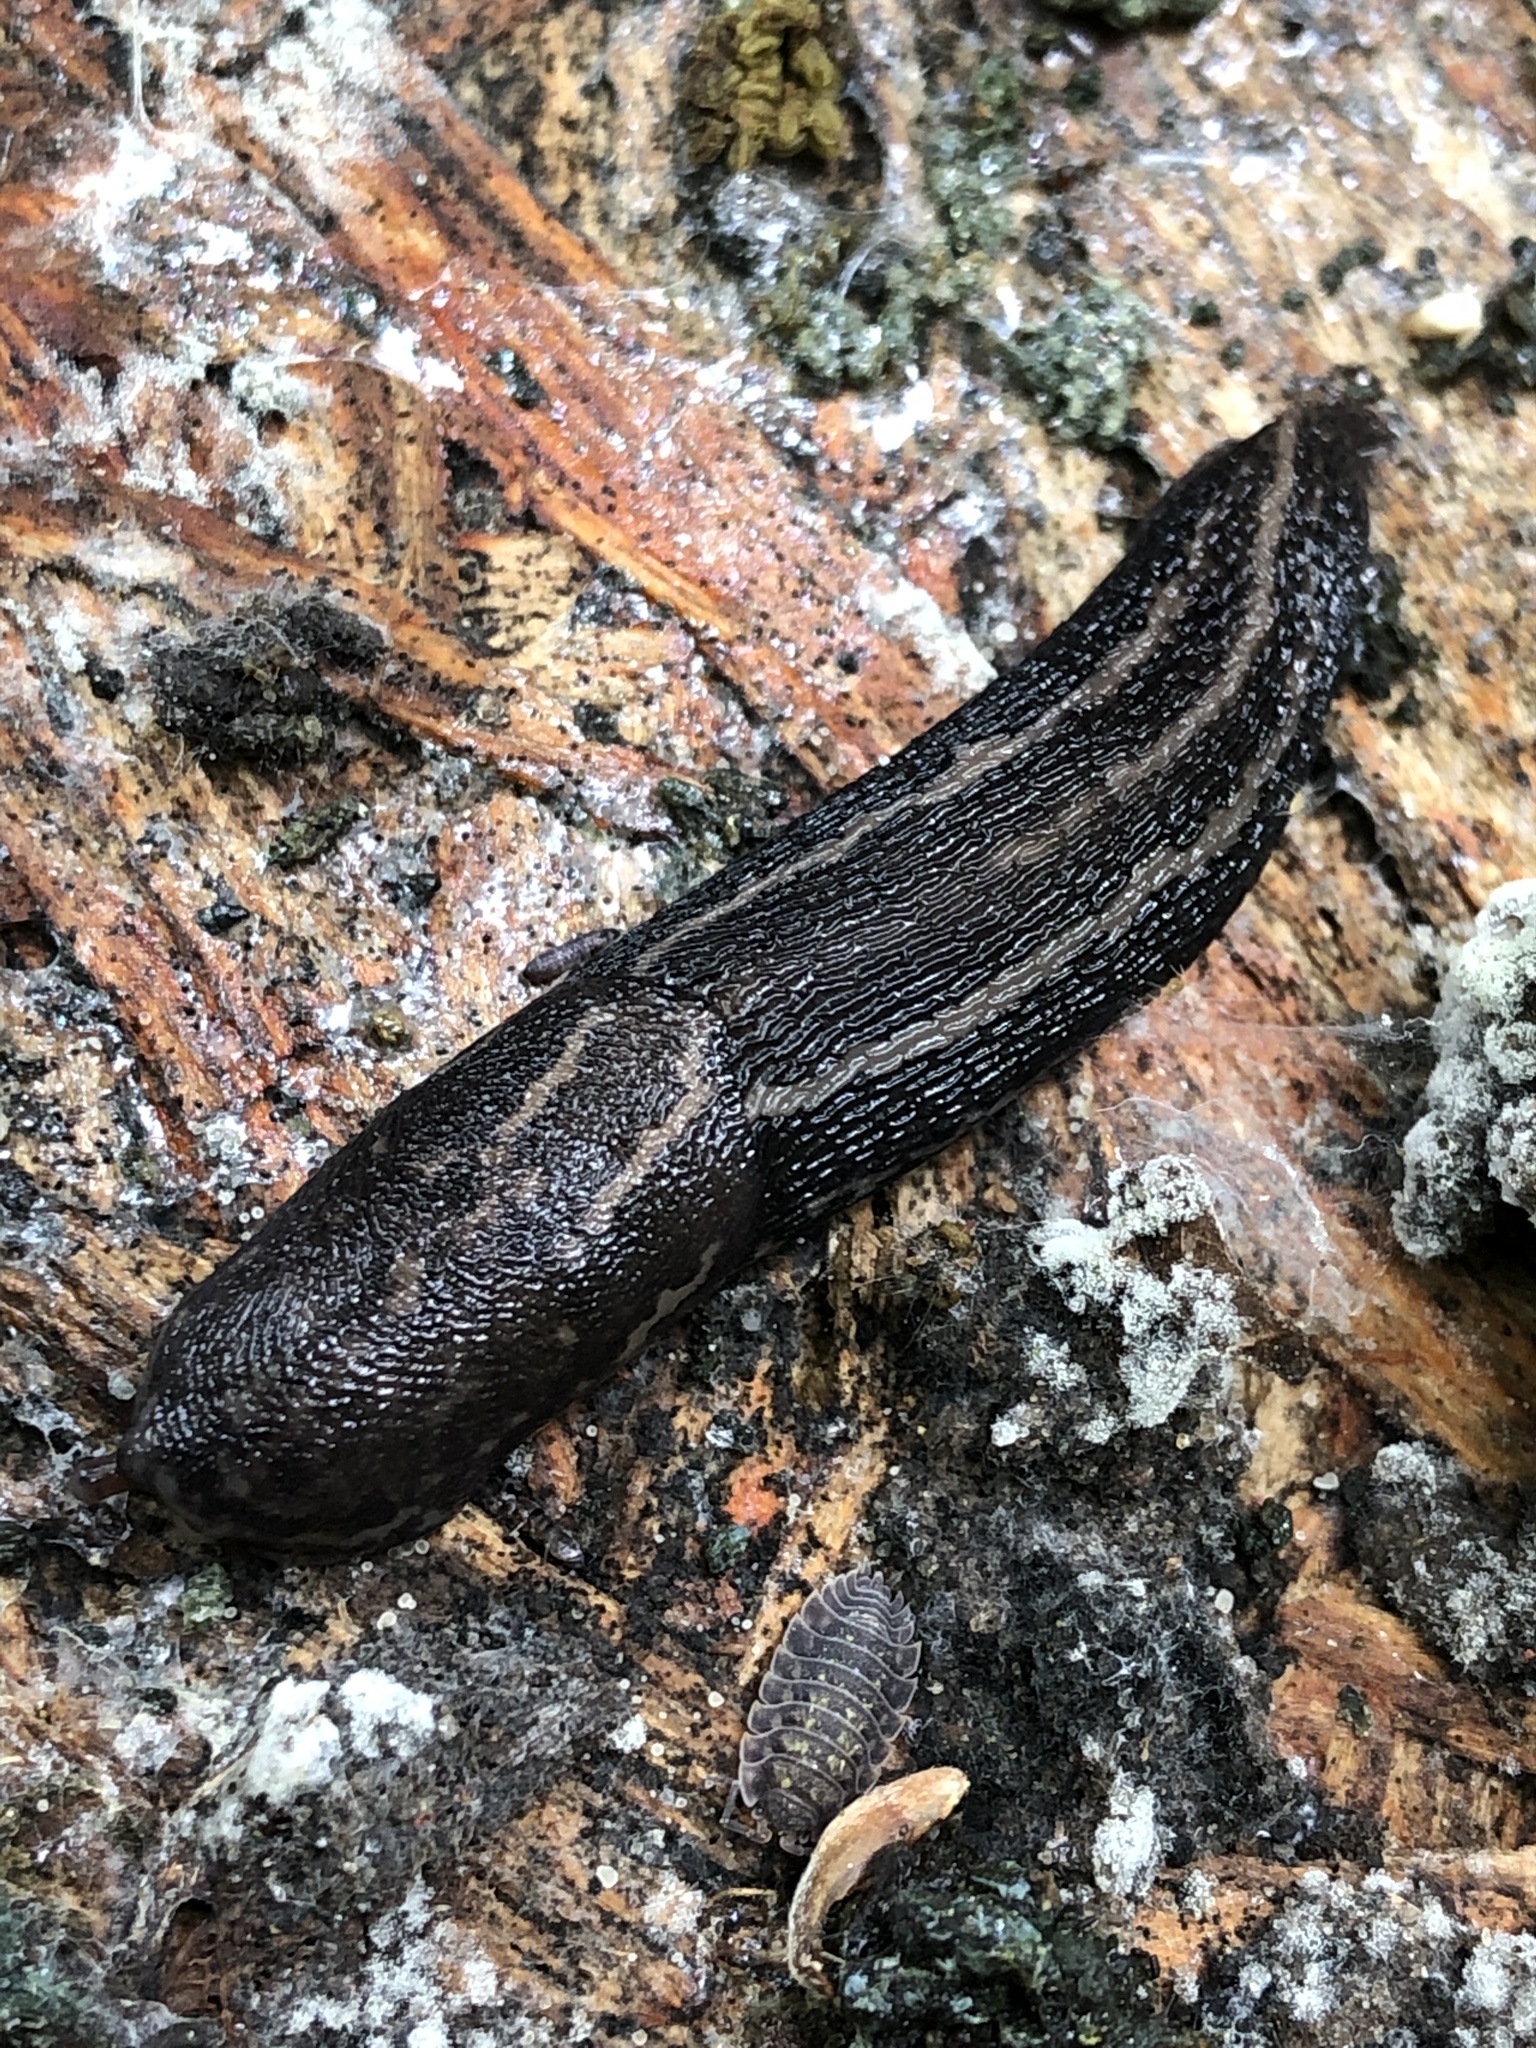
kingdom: Animalia
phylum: Mollusca
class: Gastropoda
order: Stylommatophora
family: Limacidae
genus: Limax
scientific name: Limax maximus
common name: Great grey slug
